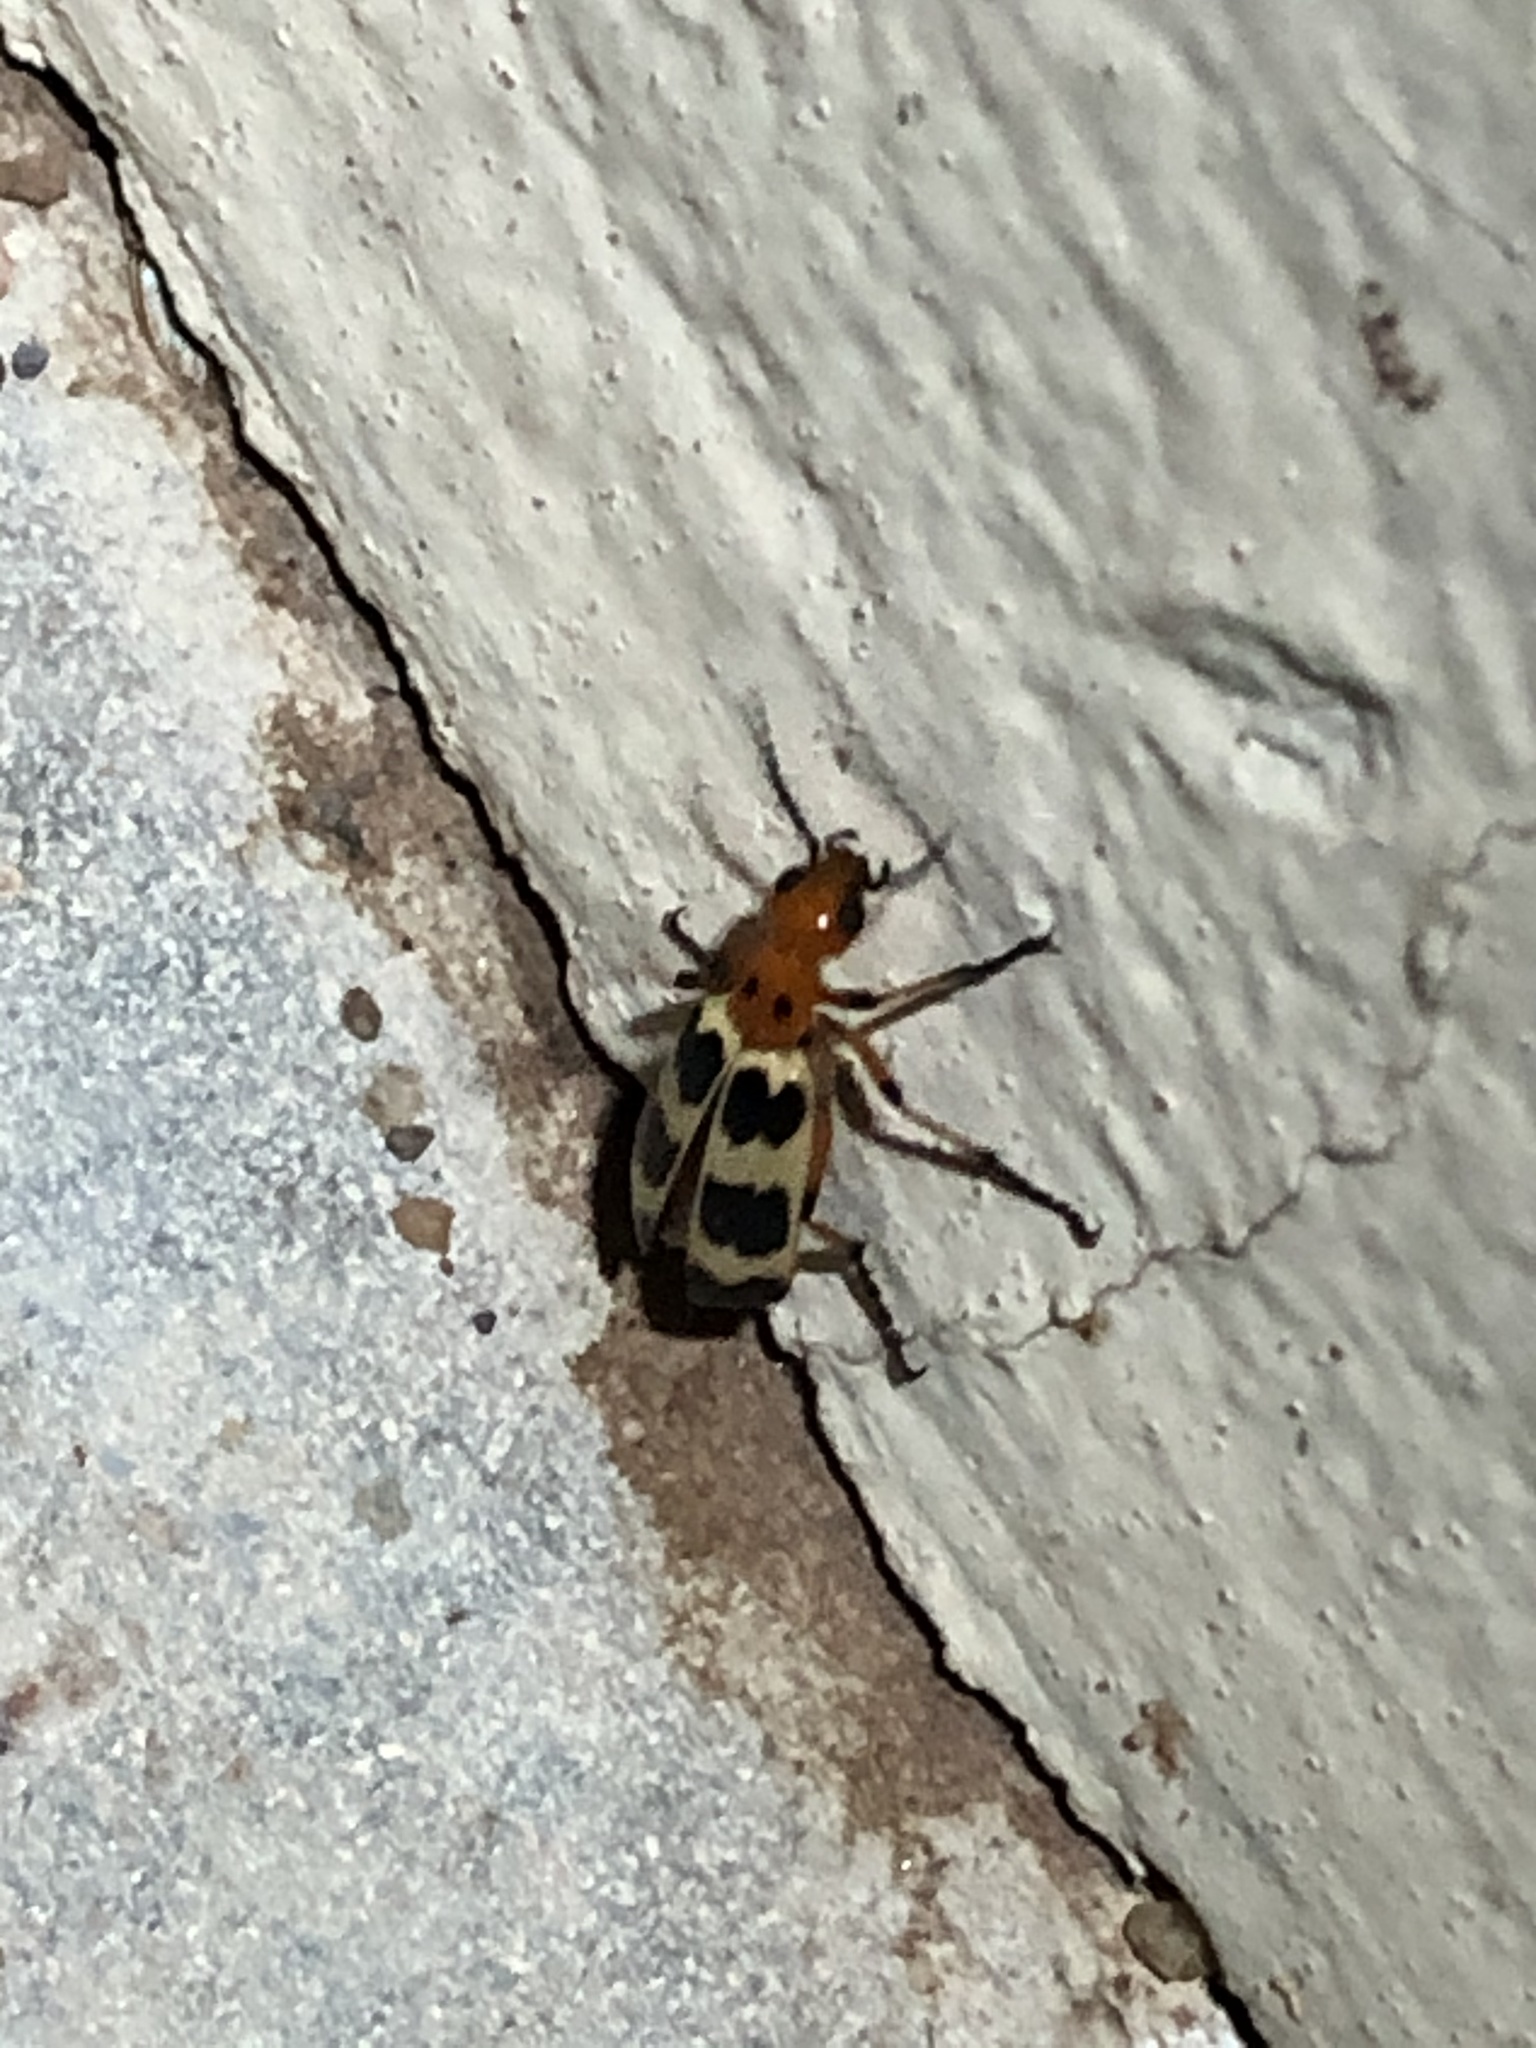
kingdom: Animalia
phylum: Arthropoda
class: Insecta
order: Coleoptera
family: Meloidae
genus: Pyrota
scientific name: Pyrota palpalis
